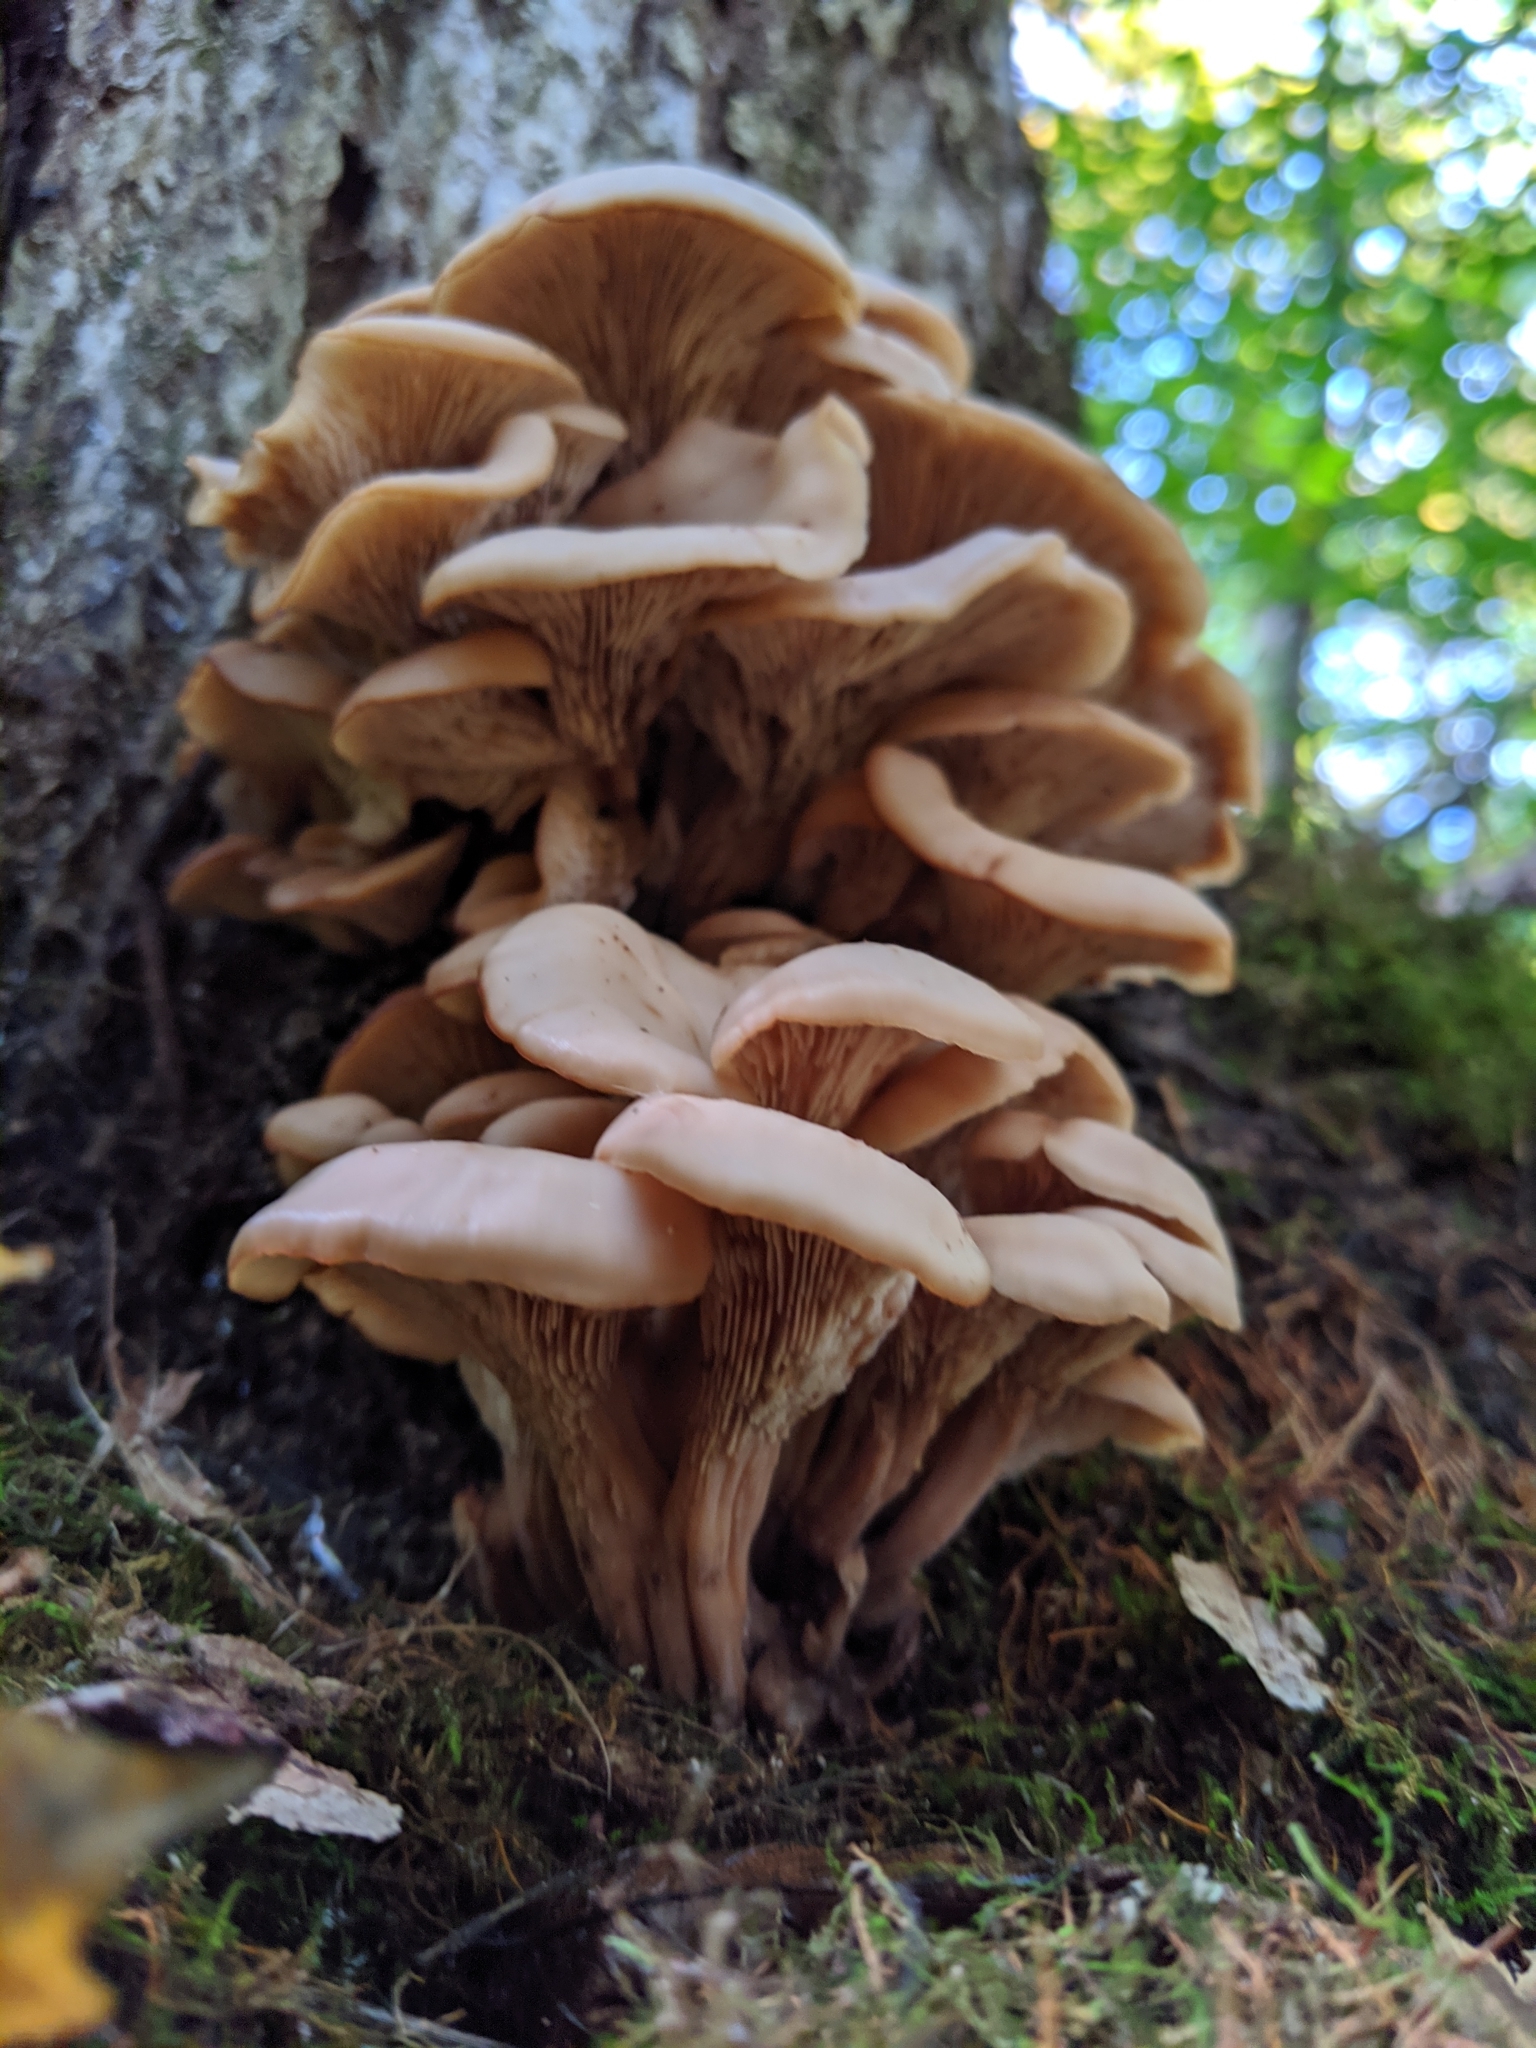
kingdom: Fungi
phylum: Basidiomycota
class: Agaricomycetes
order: Russulales
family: Auriscalpiaceae
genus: Lentinellus
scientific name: Lentinellus cochleatus
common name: Aniseed cockleshell
